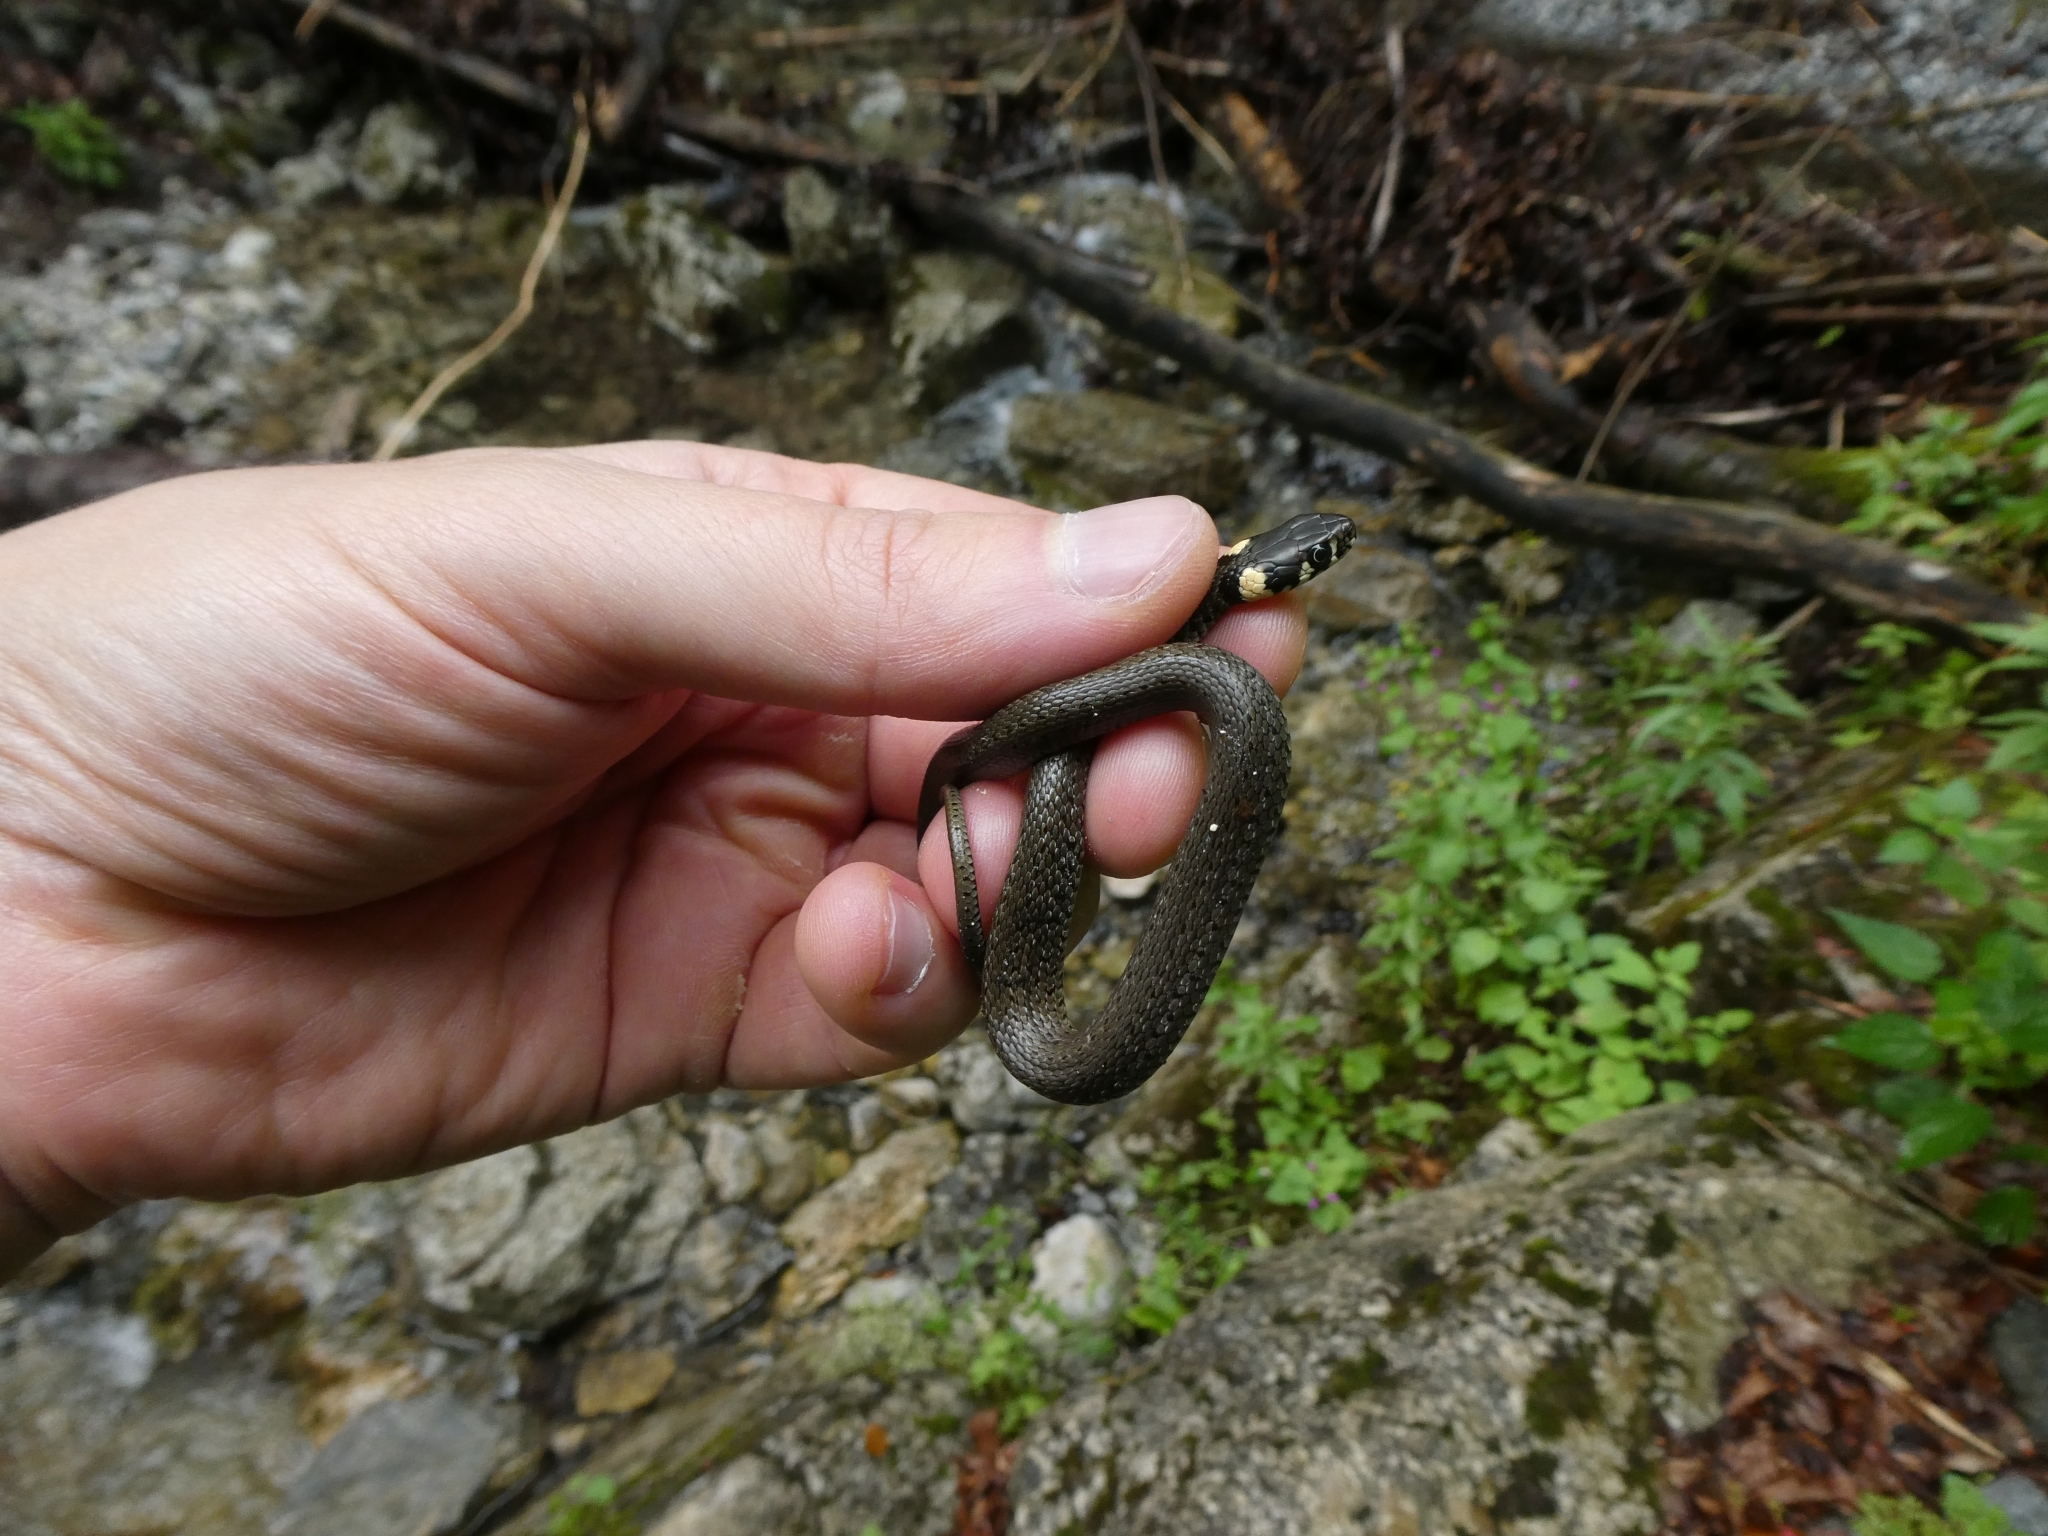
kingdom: Animalia
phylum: Chordata
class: Squamata
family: Colubridae
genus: Natrix
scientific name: Natrix natrix
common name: Grass snake
